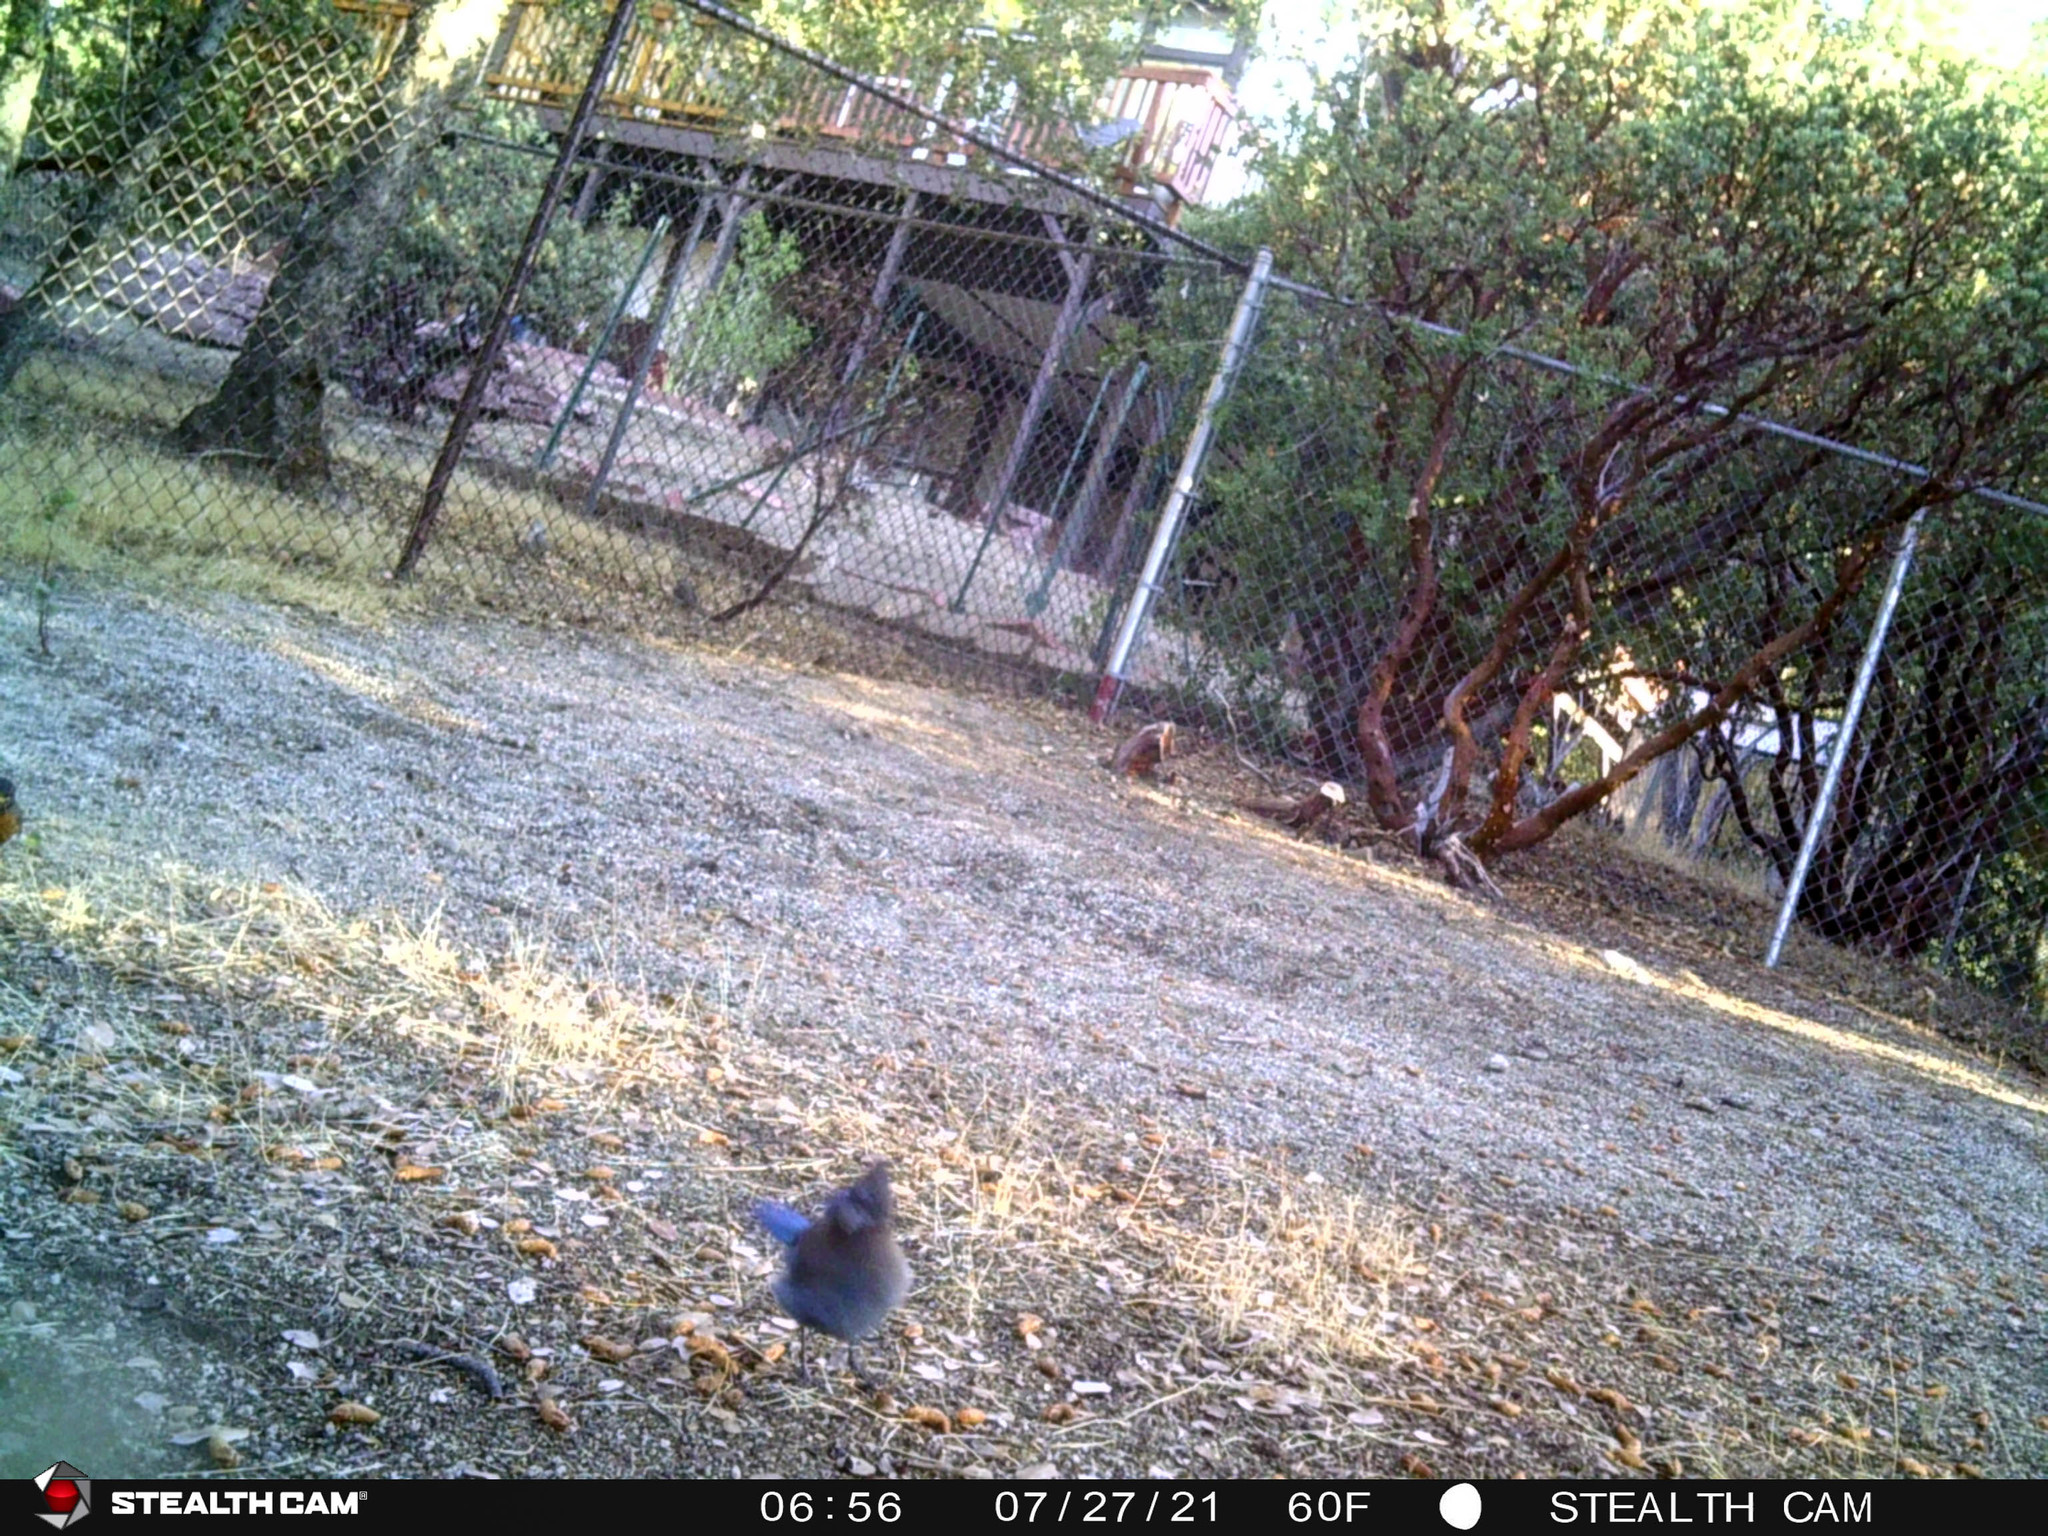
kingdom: Animalia
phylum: Chordata
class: Aves
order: Passeriformes
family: Turdidae
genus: Turdus
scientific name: Turdus migratorius
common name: American robin
